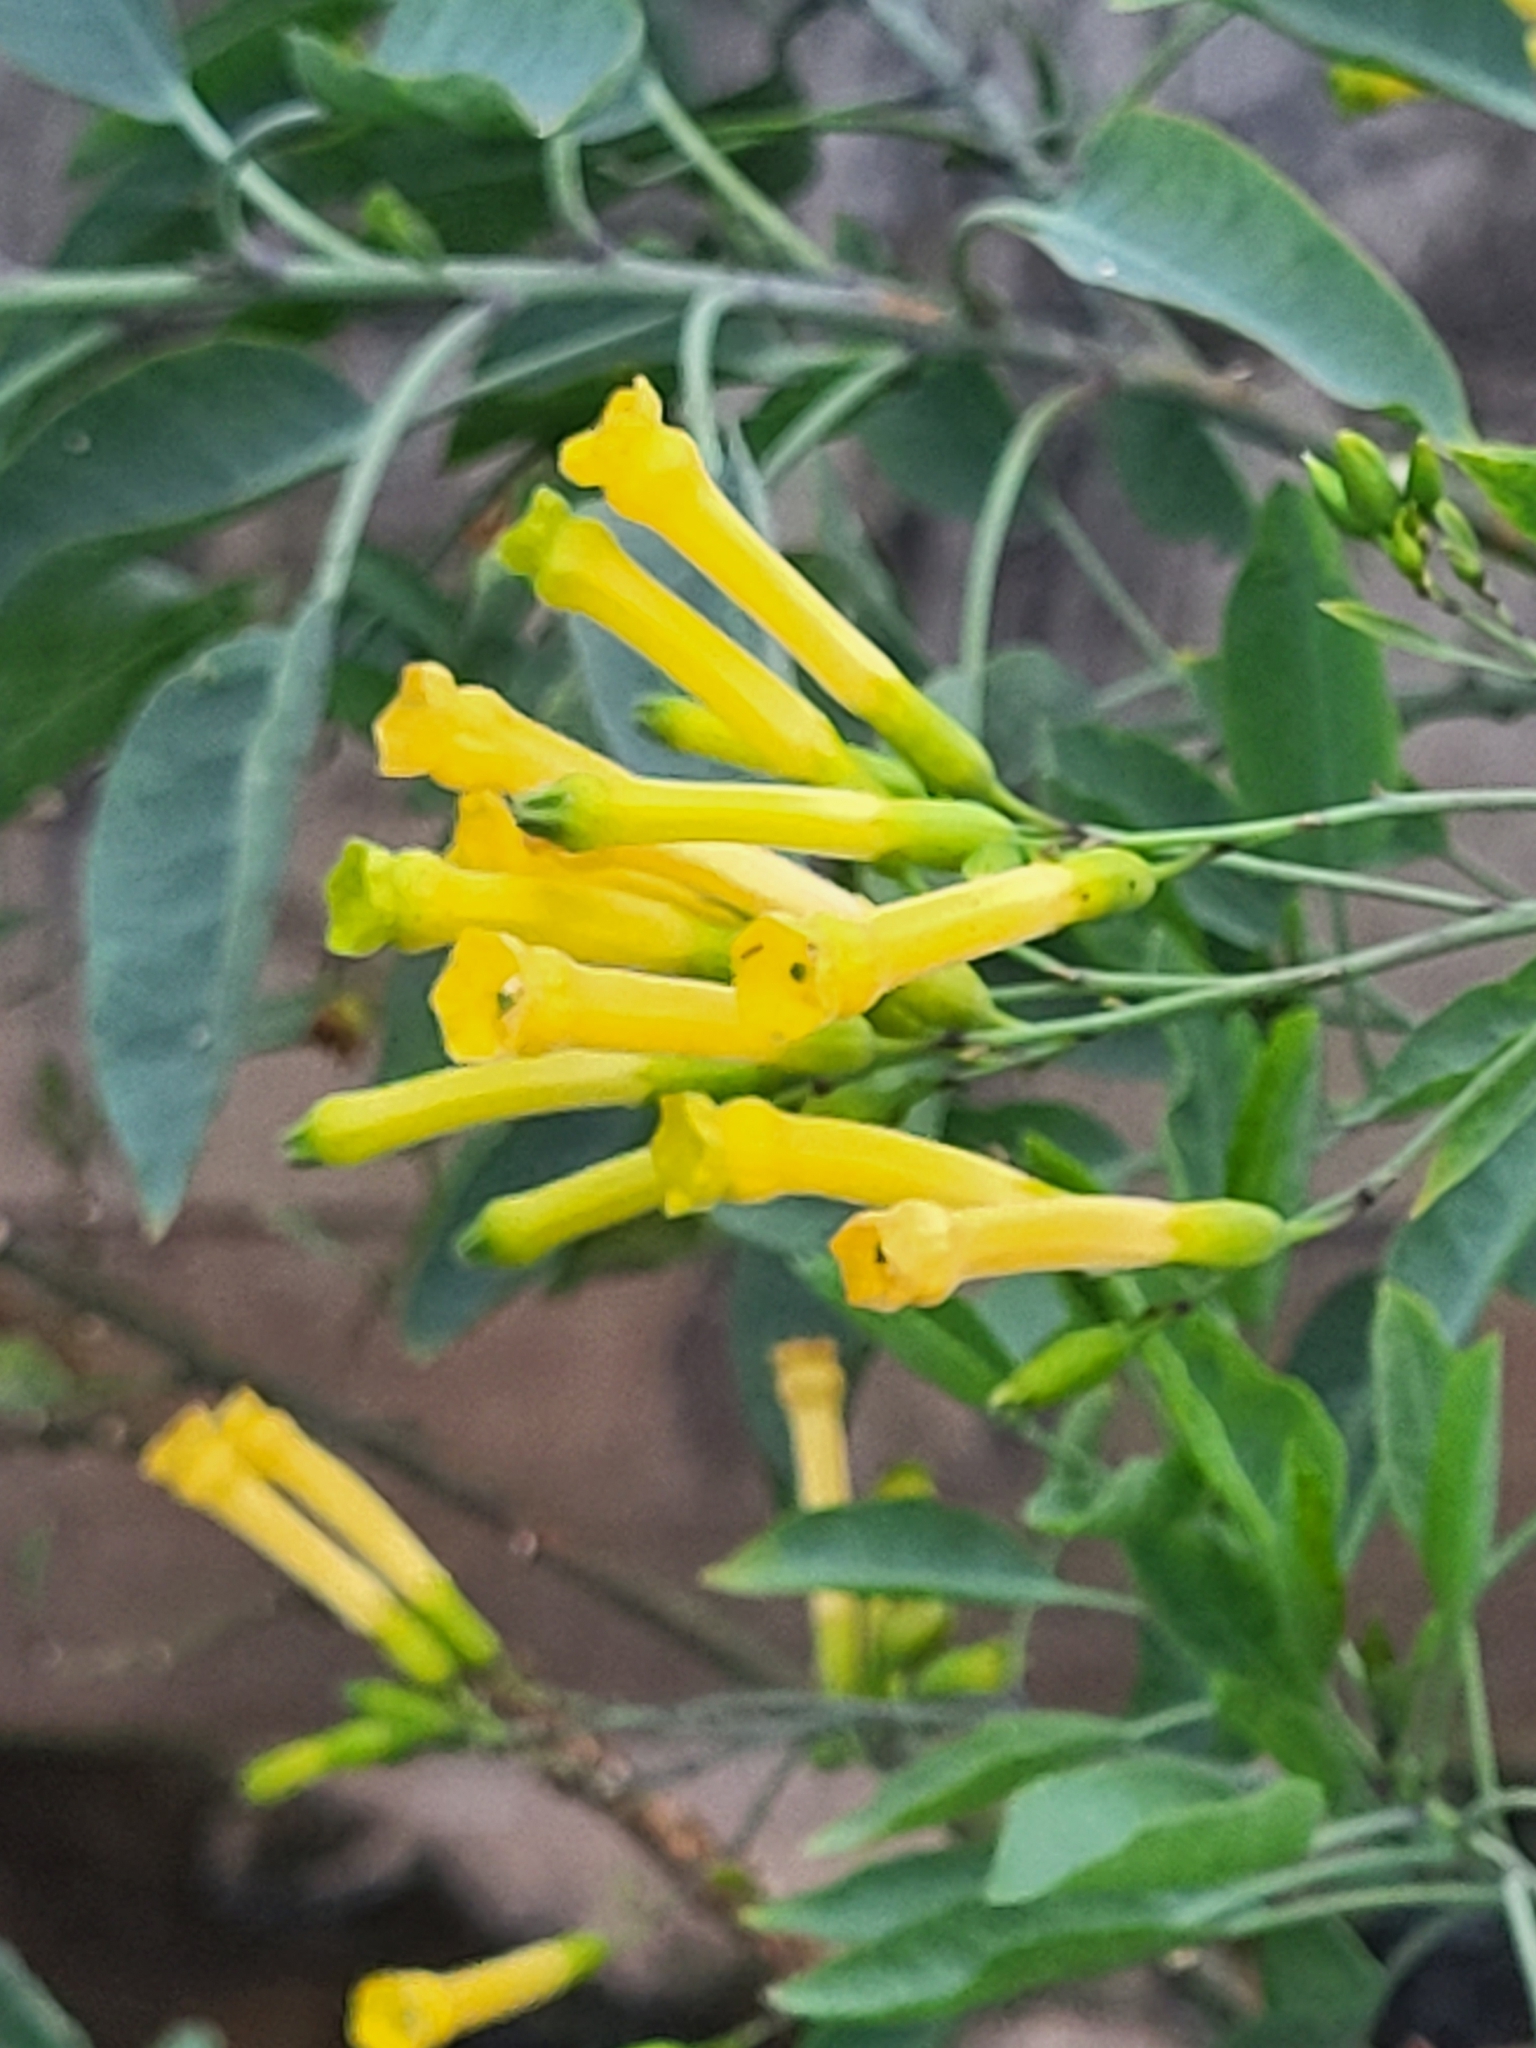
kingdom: Plantae
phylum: Tracheophyta
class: Magnoliopsida
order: Solanales
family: Solanaceae
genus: Nicotiana
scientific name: Nicotiana glauca
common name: Tree tobacco
